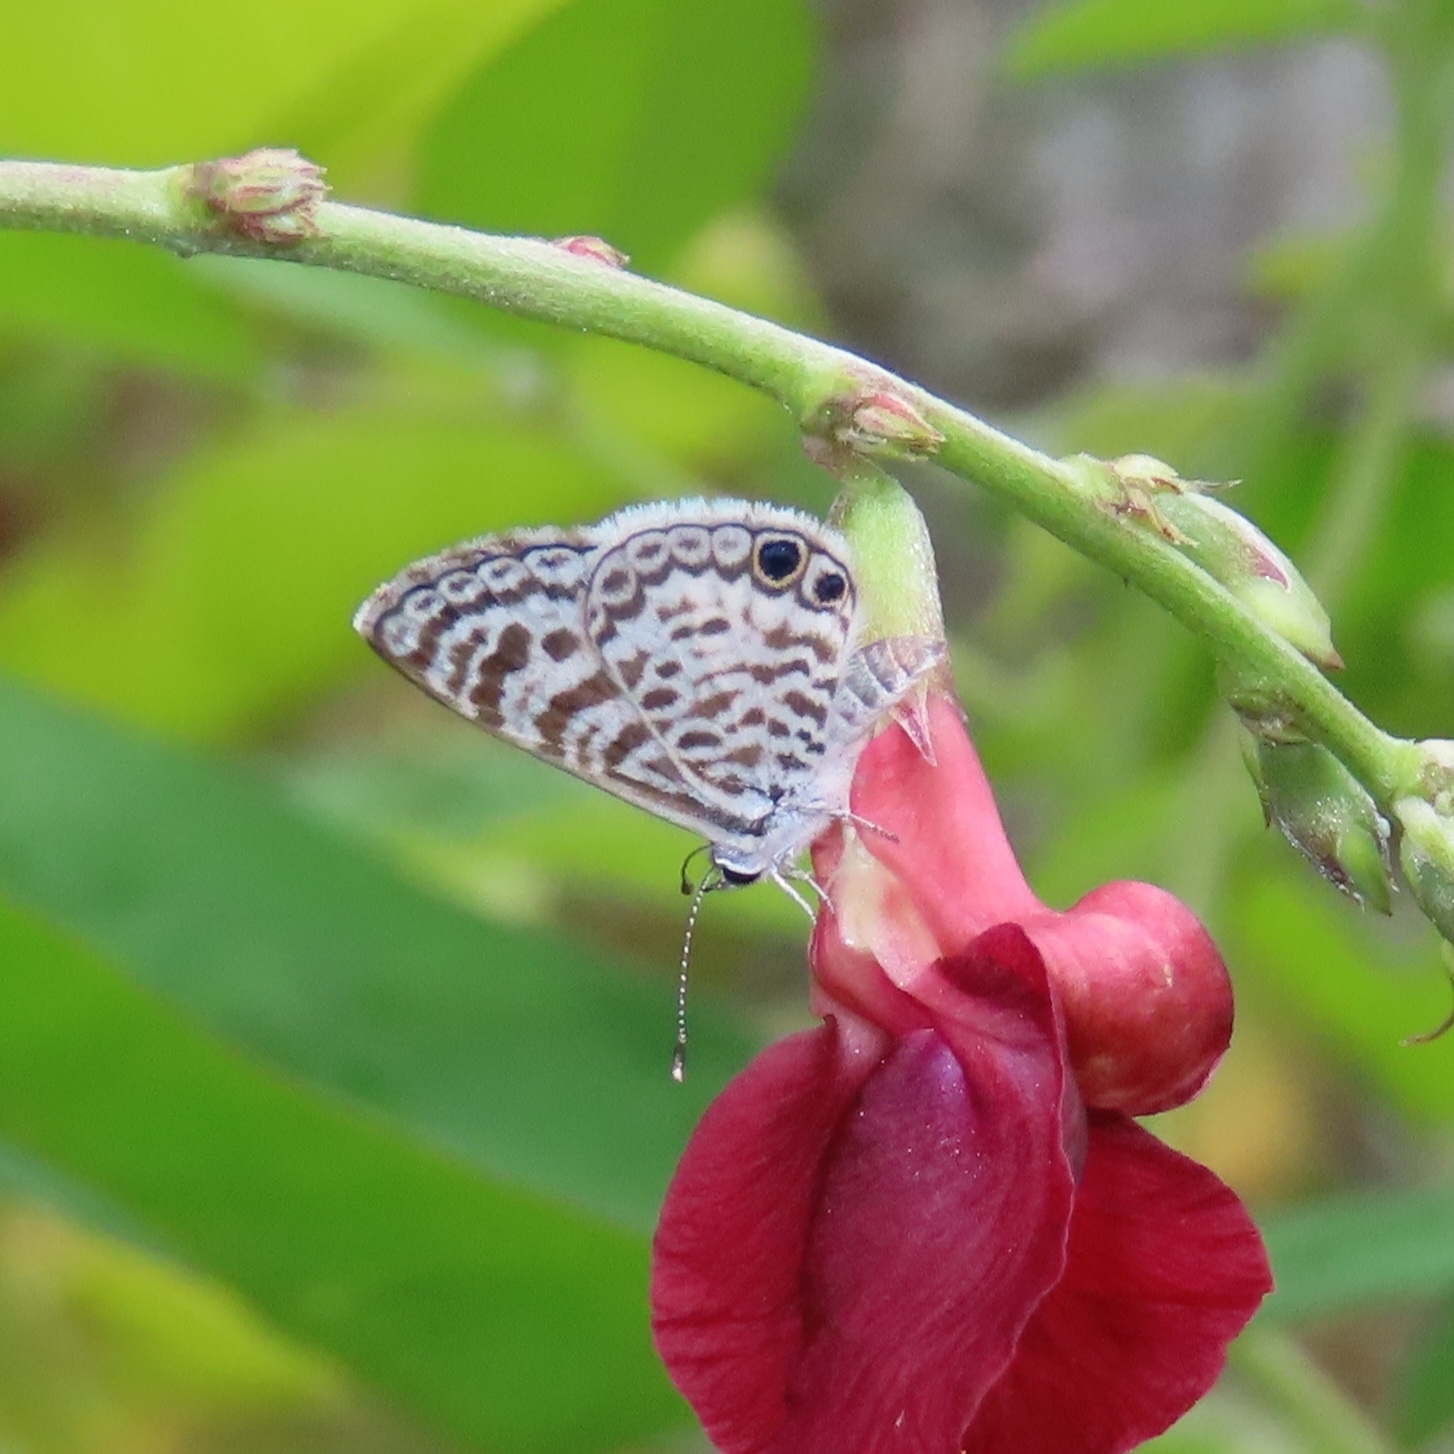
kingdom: Animalia
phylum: Arthropoda
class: Insecta
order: Lepidoptera
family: Lycaenidae
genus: Leptotes
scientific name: Leptotes cassius
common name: Cassius blue
